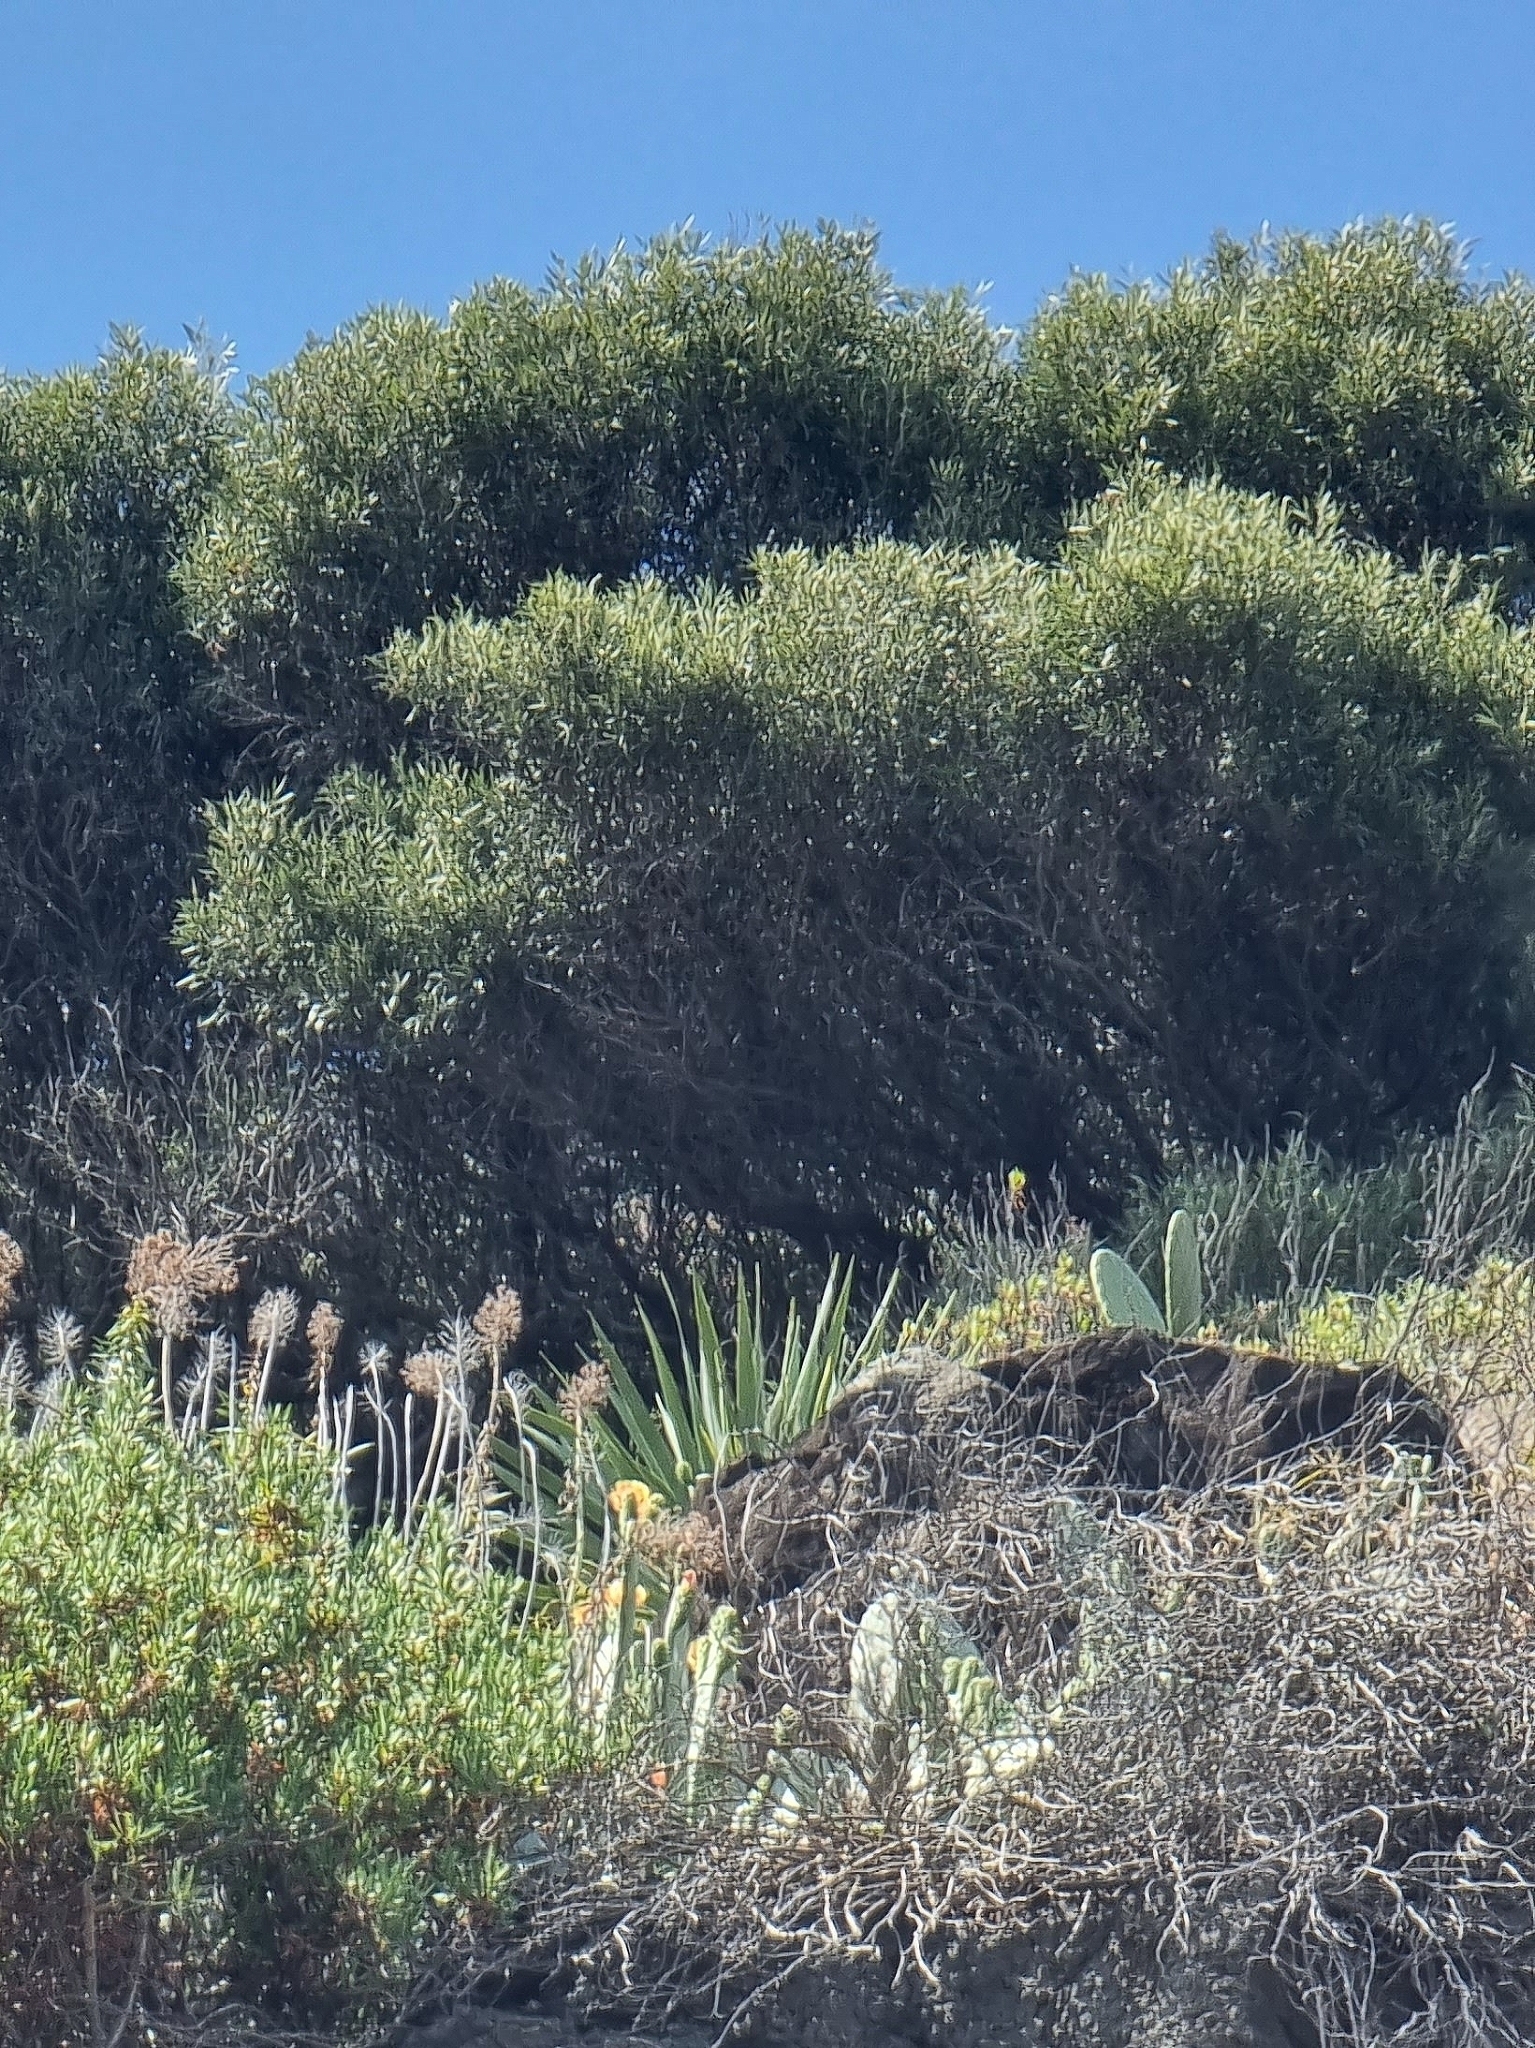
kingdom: Plantae
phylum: Tracheophyta
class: Magnoliopsida
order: Lamiales
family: Oleaceae
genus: Olea
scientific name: Olea europaea
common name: Olive
